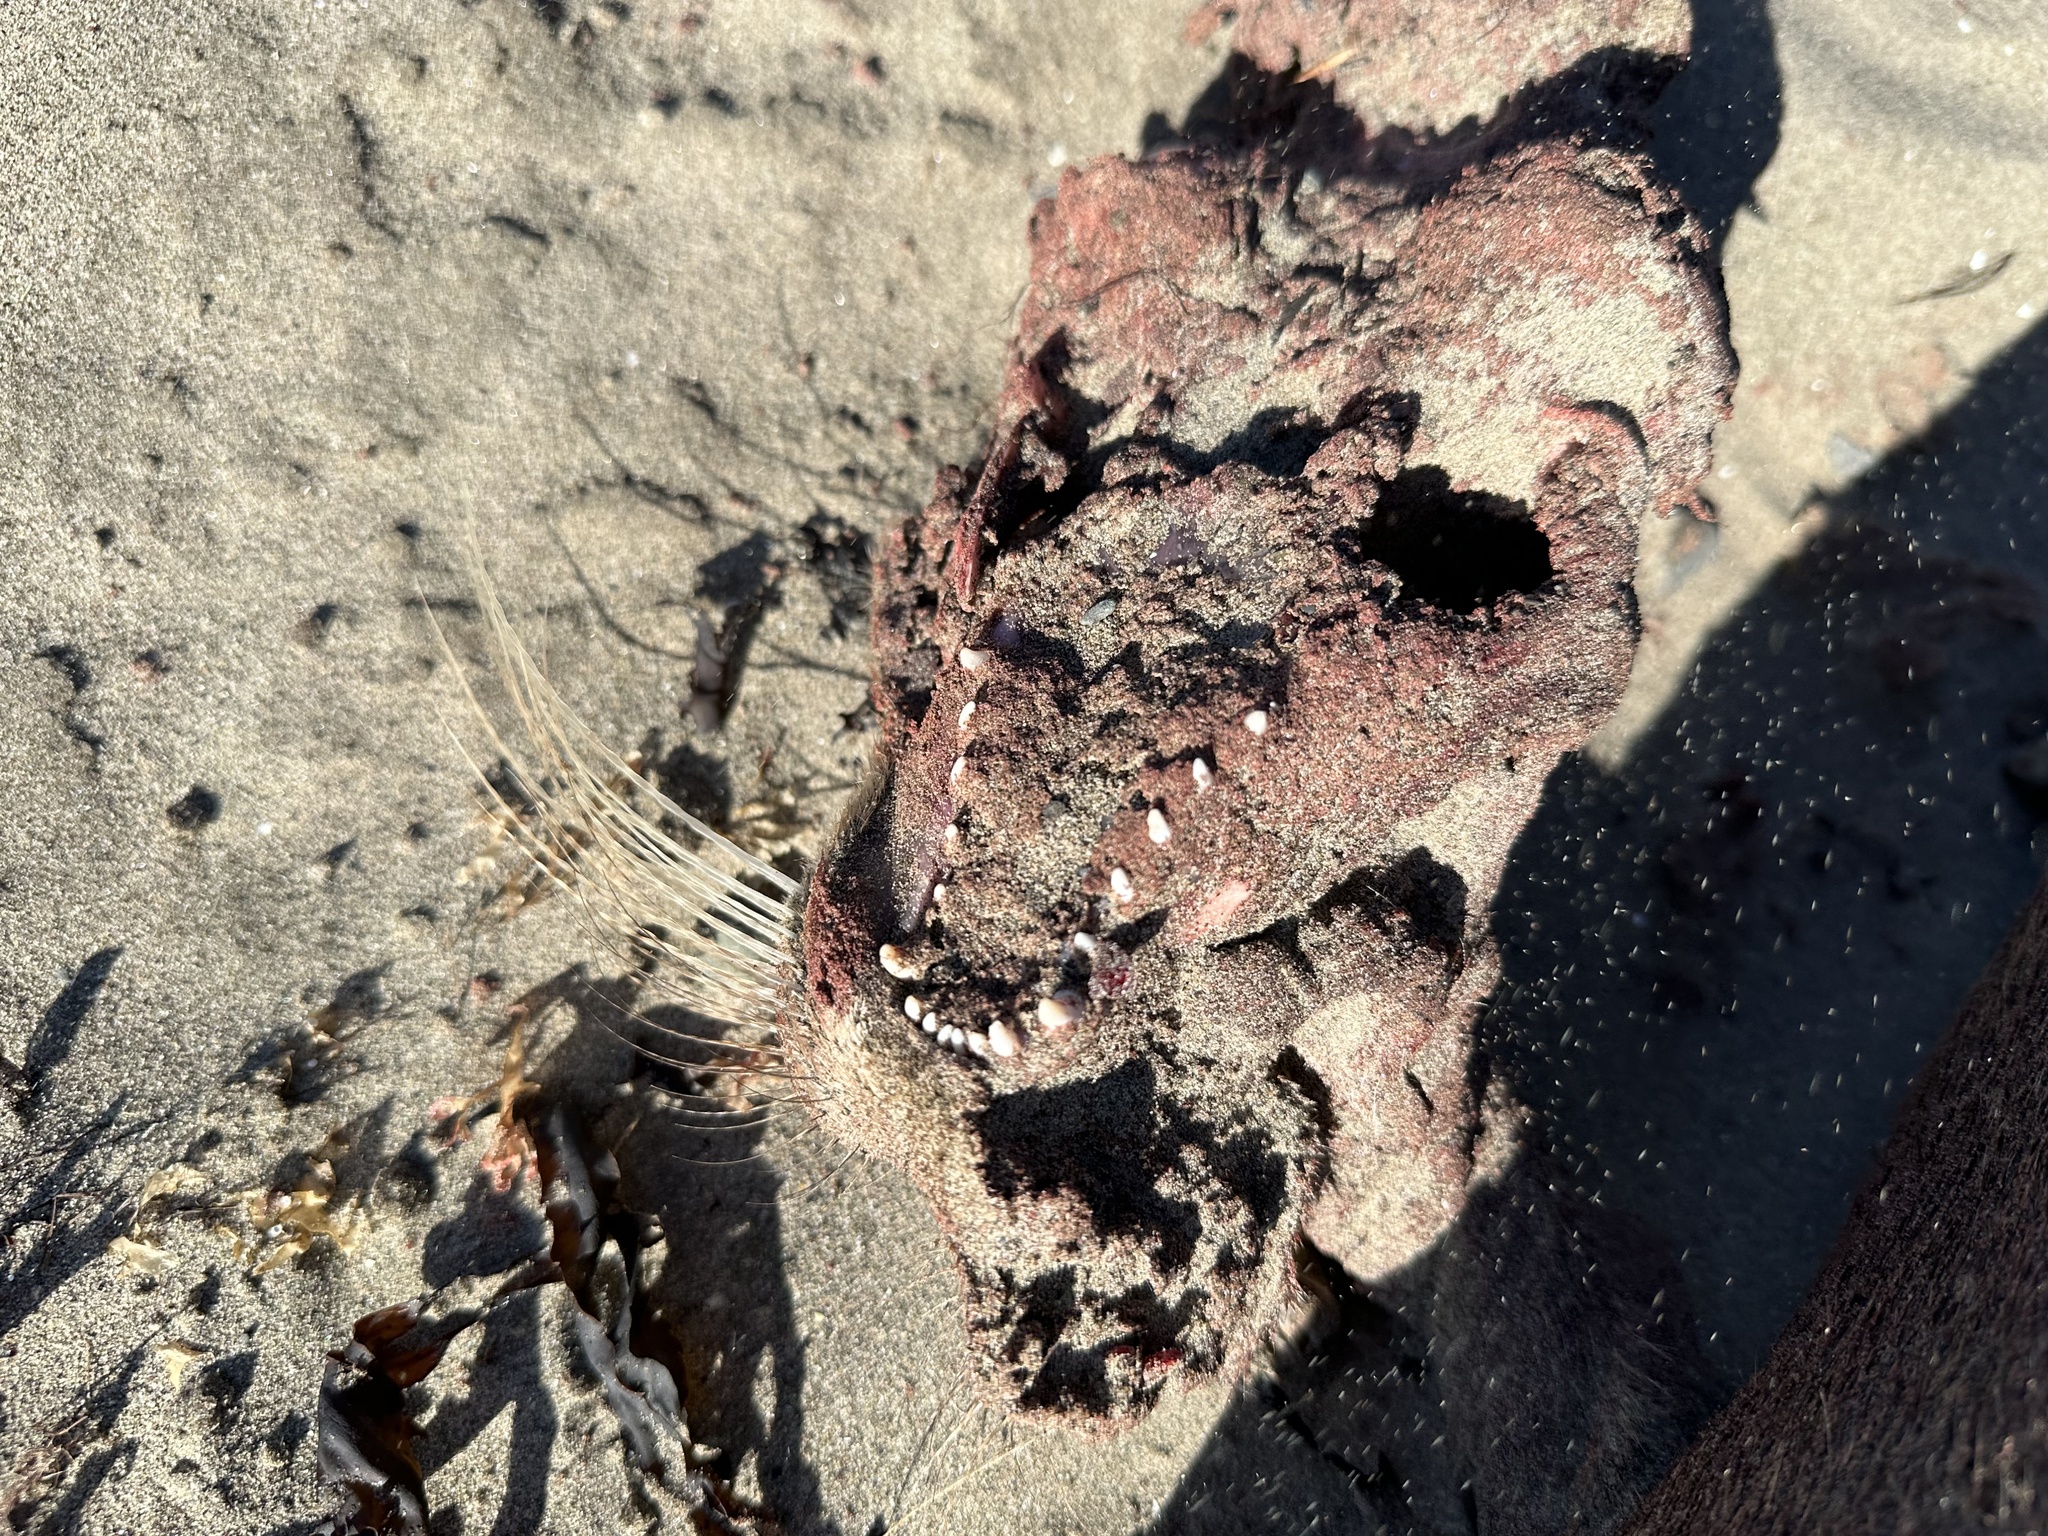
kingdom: Animalia
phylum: Chordata
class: Mammalia
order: Carnivora
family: Phocidae
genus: Halichoerus
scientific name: Halichoerus grypus
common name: Grey seal
